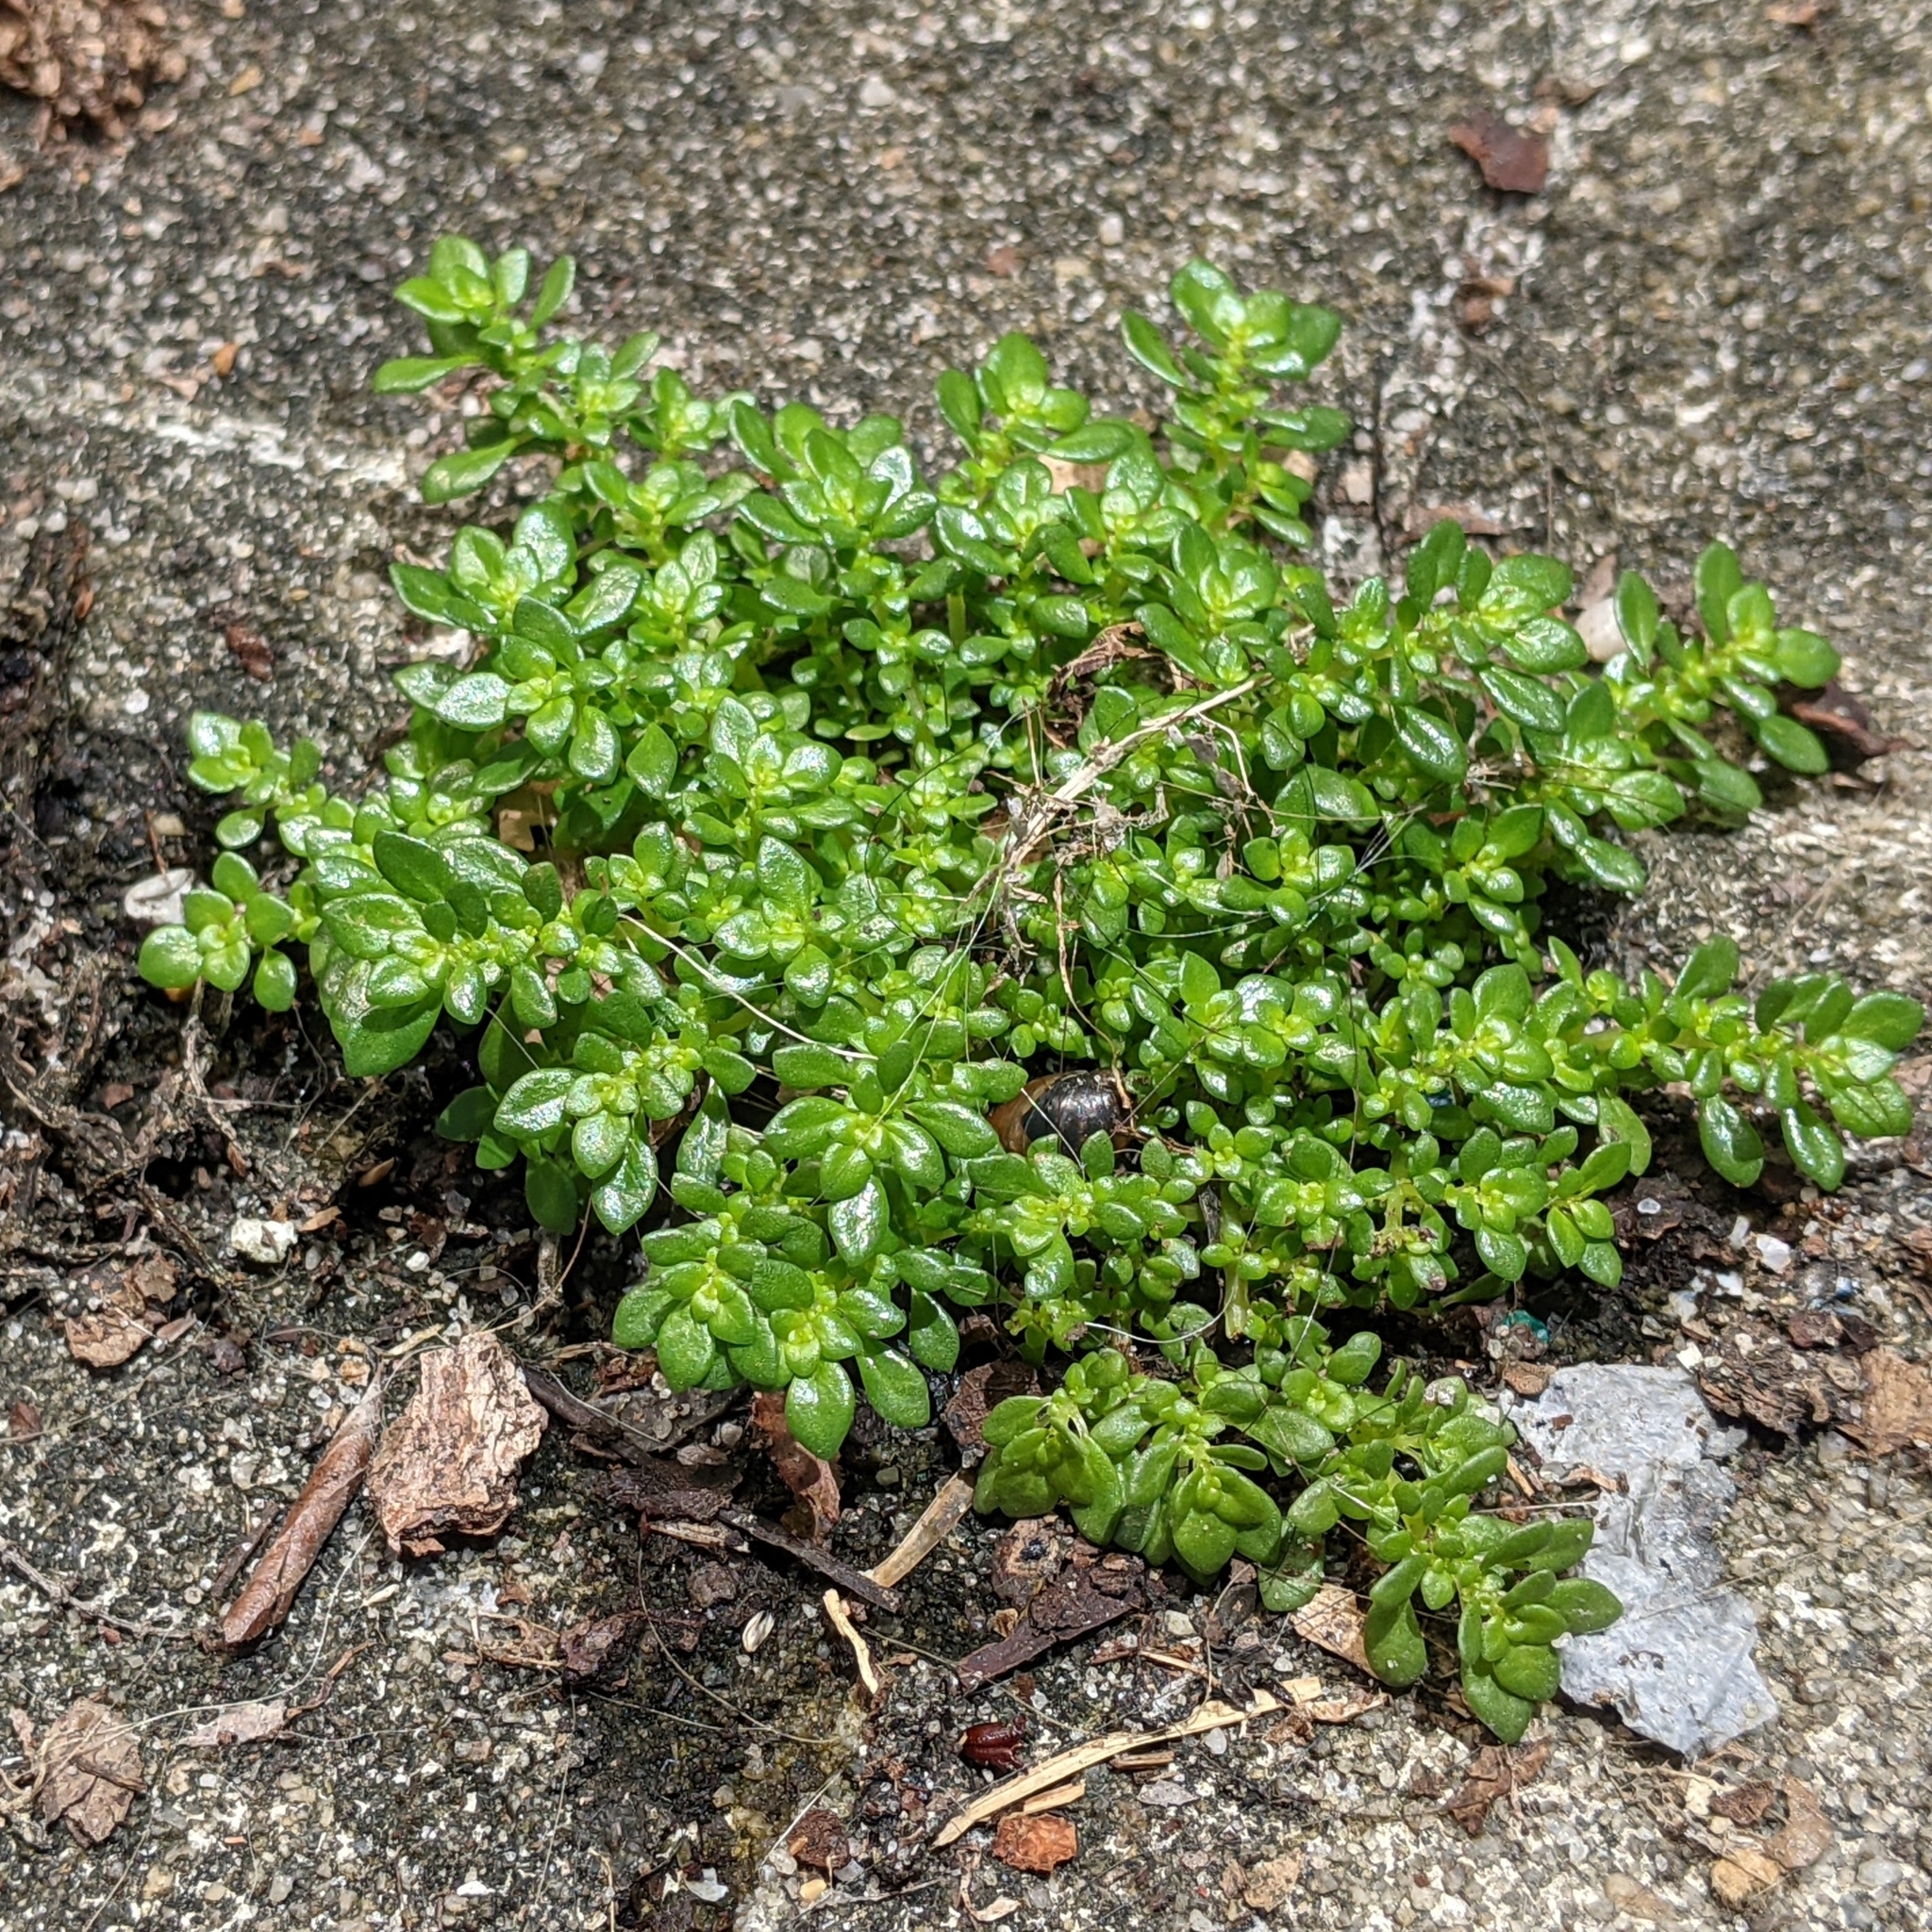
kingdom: Plantae
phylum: Tracheophyta
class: Magnoliopsida
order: Rosales
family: Urticaceae
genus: Pilea
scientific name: Pilea microphylla
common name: Artillery-plant
